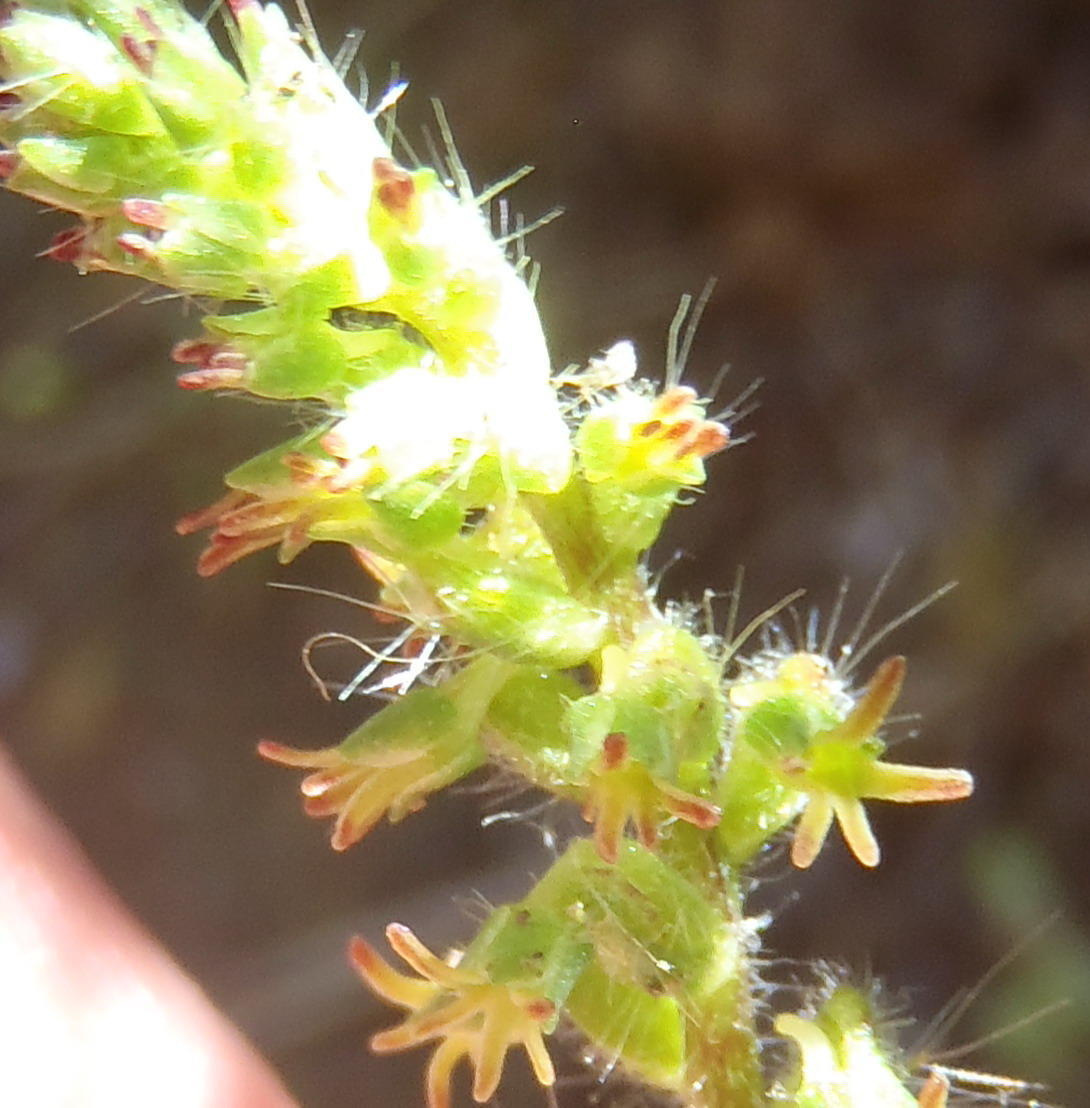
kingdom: Plantae
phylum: Tracheophyta
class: Liliopsida
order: Asparagales
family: Orchidaceae
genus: Holothrix
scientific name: Holothrix villosa
